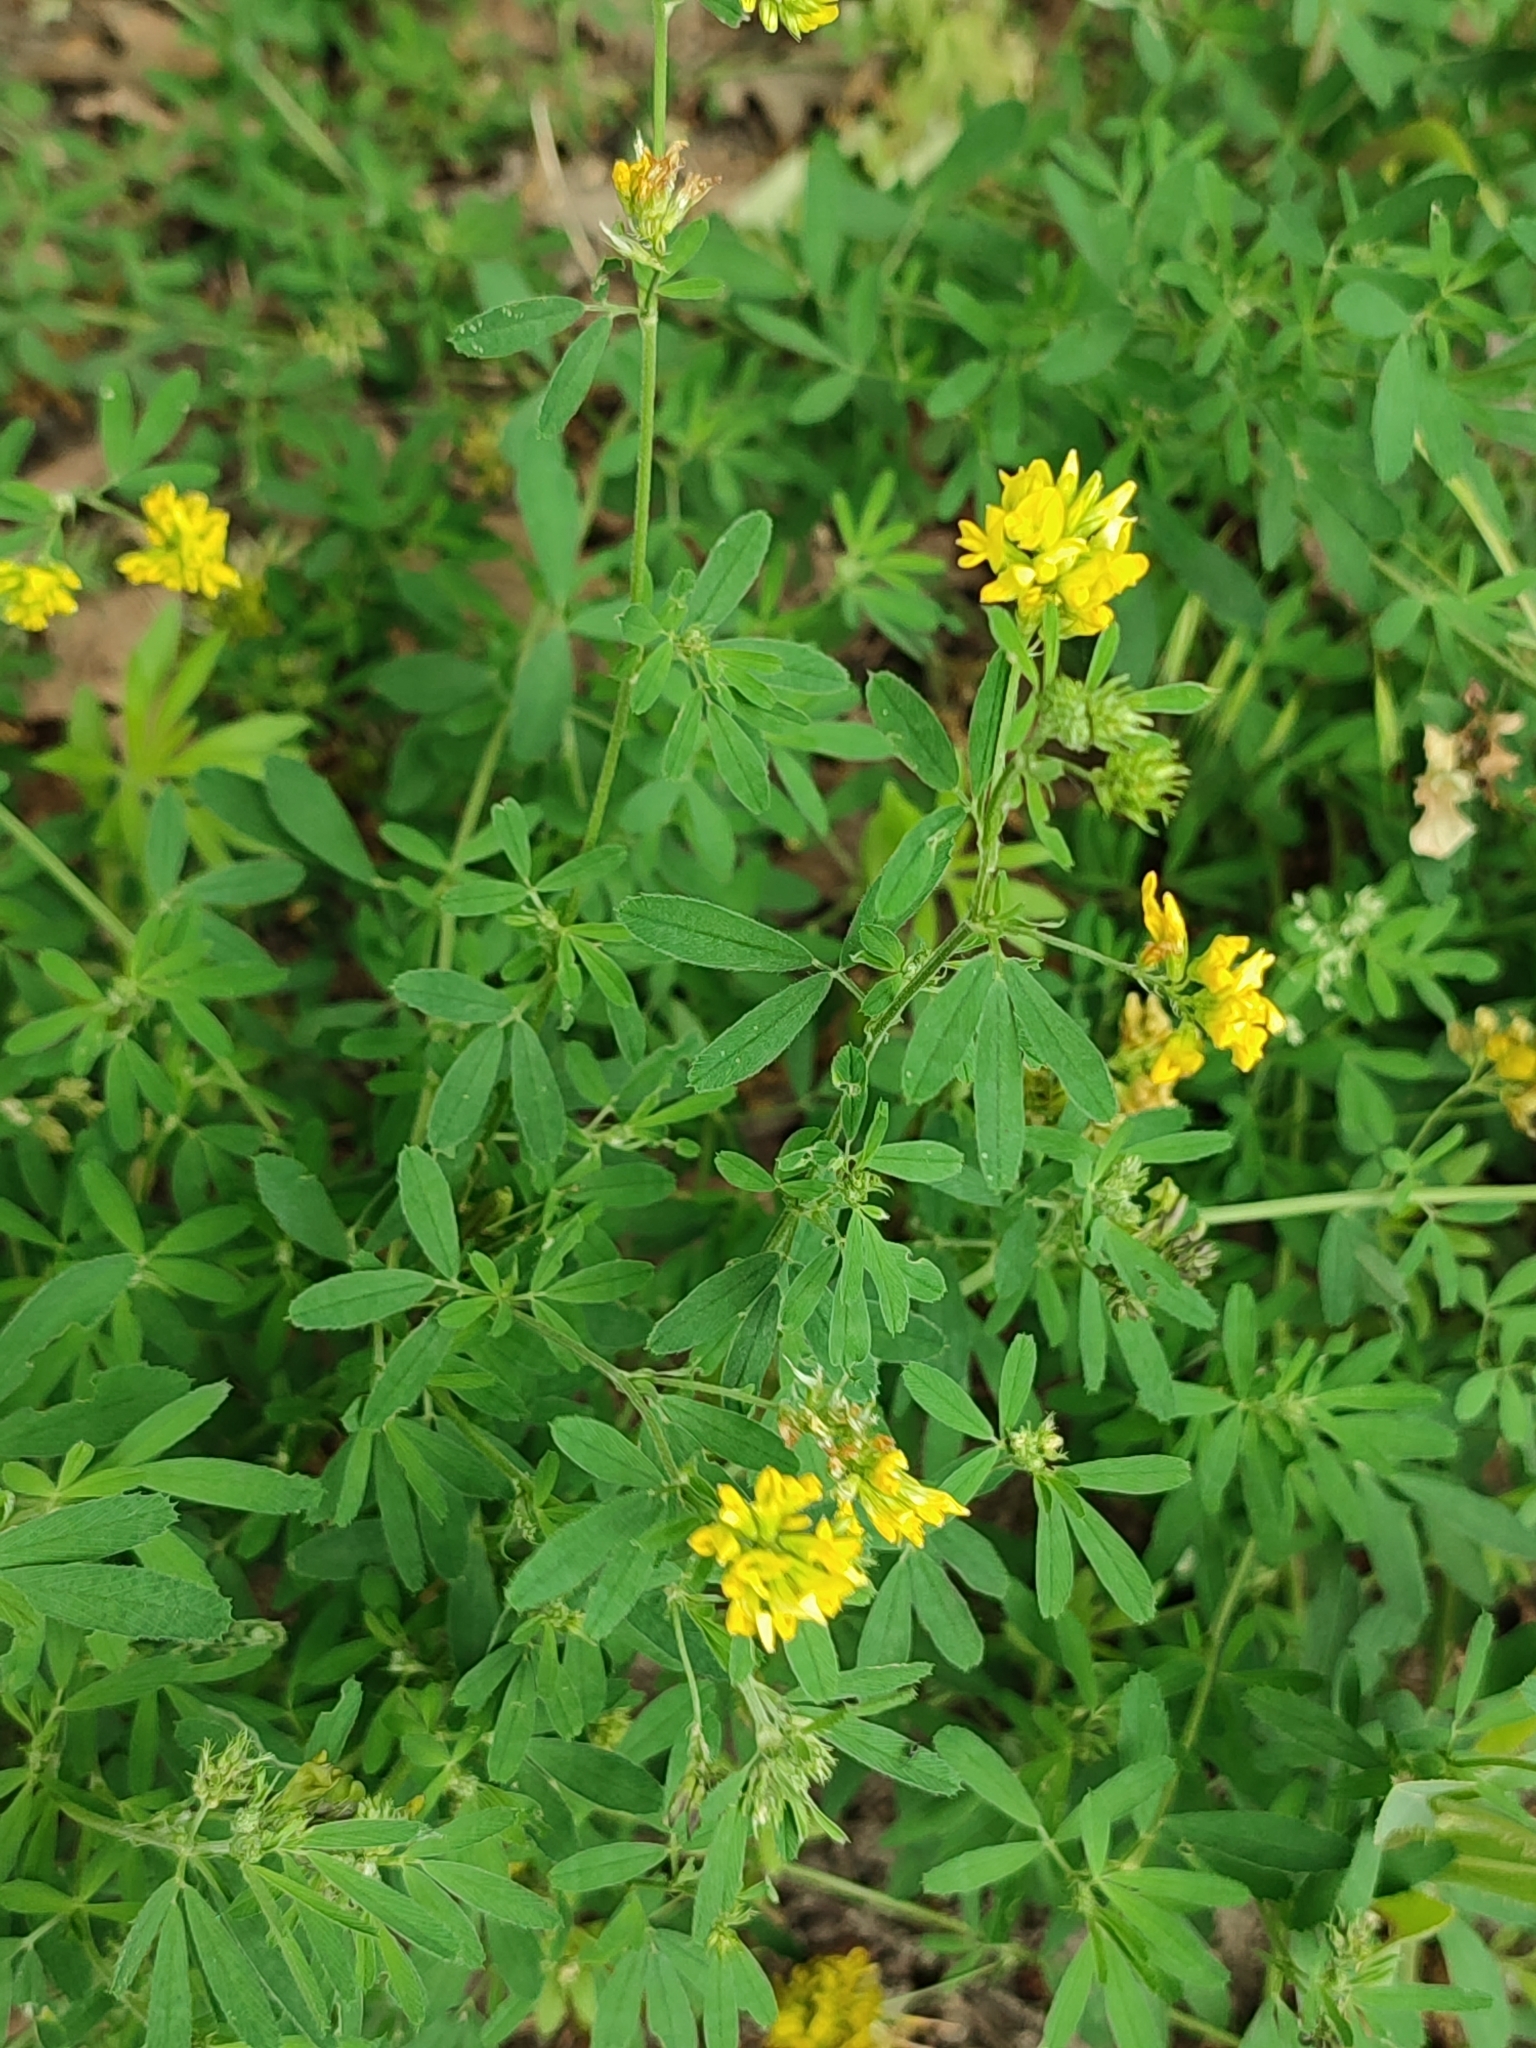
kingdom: Plantae
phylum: Tracheophyta
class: Magnoliopsida
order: Fabales
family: Fabaceae
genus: Medicago
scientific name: Medicago falcata
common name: Sickle medick
